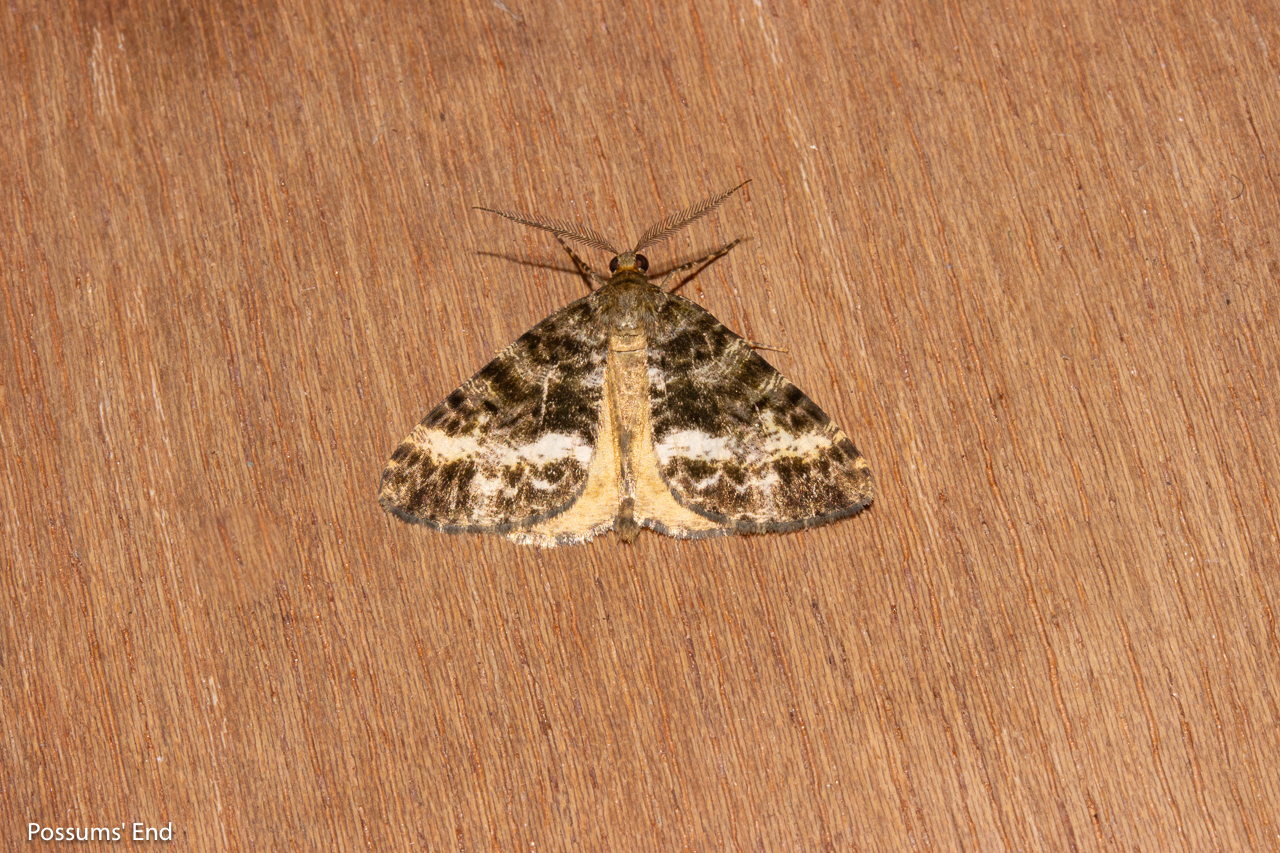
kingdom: Animalia
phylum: Arthropoda
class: Insecta
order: Lepidoptera
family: Geometridae
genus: Pseudocoremia
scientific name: Pseudocoremia lactiflua
